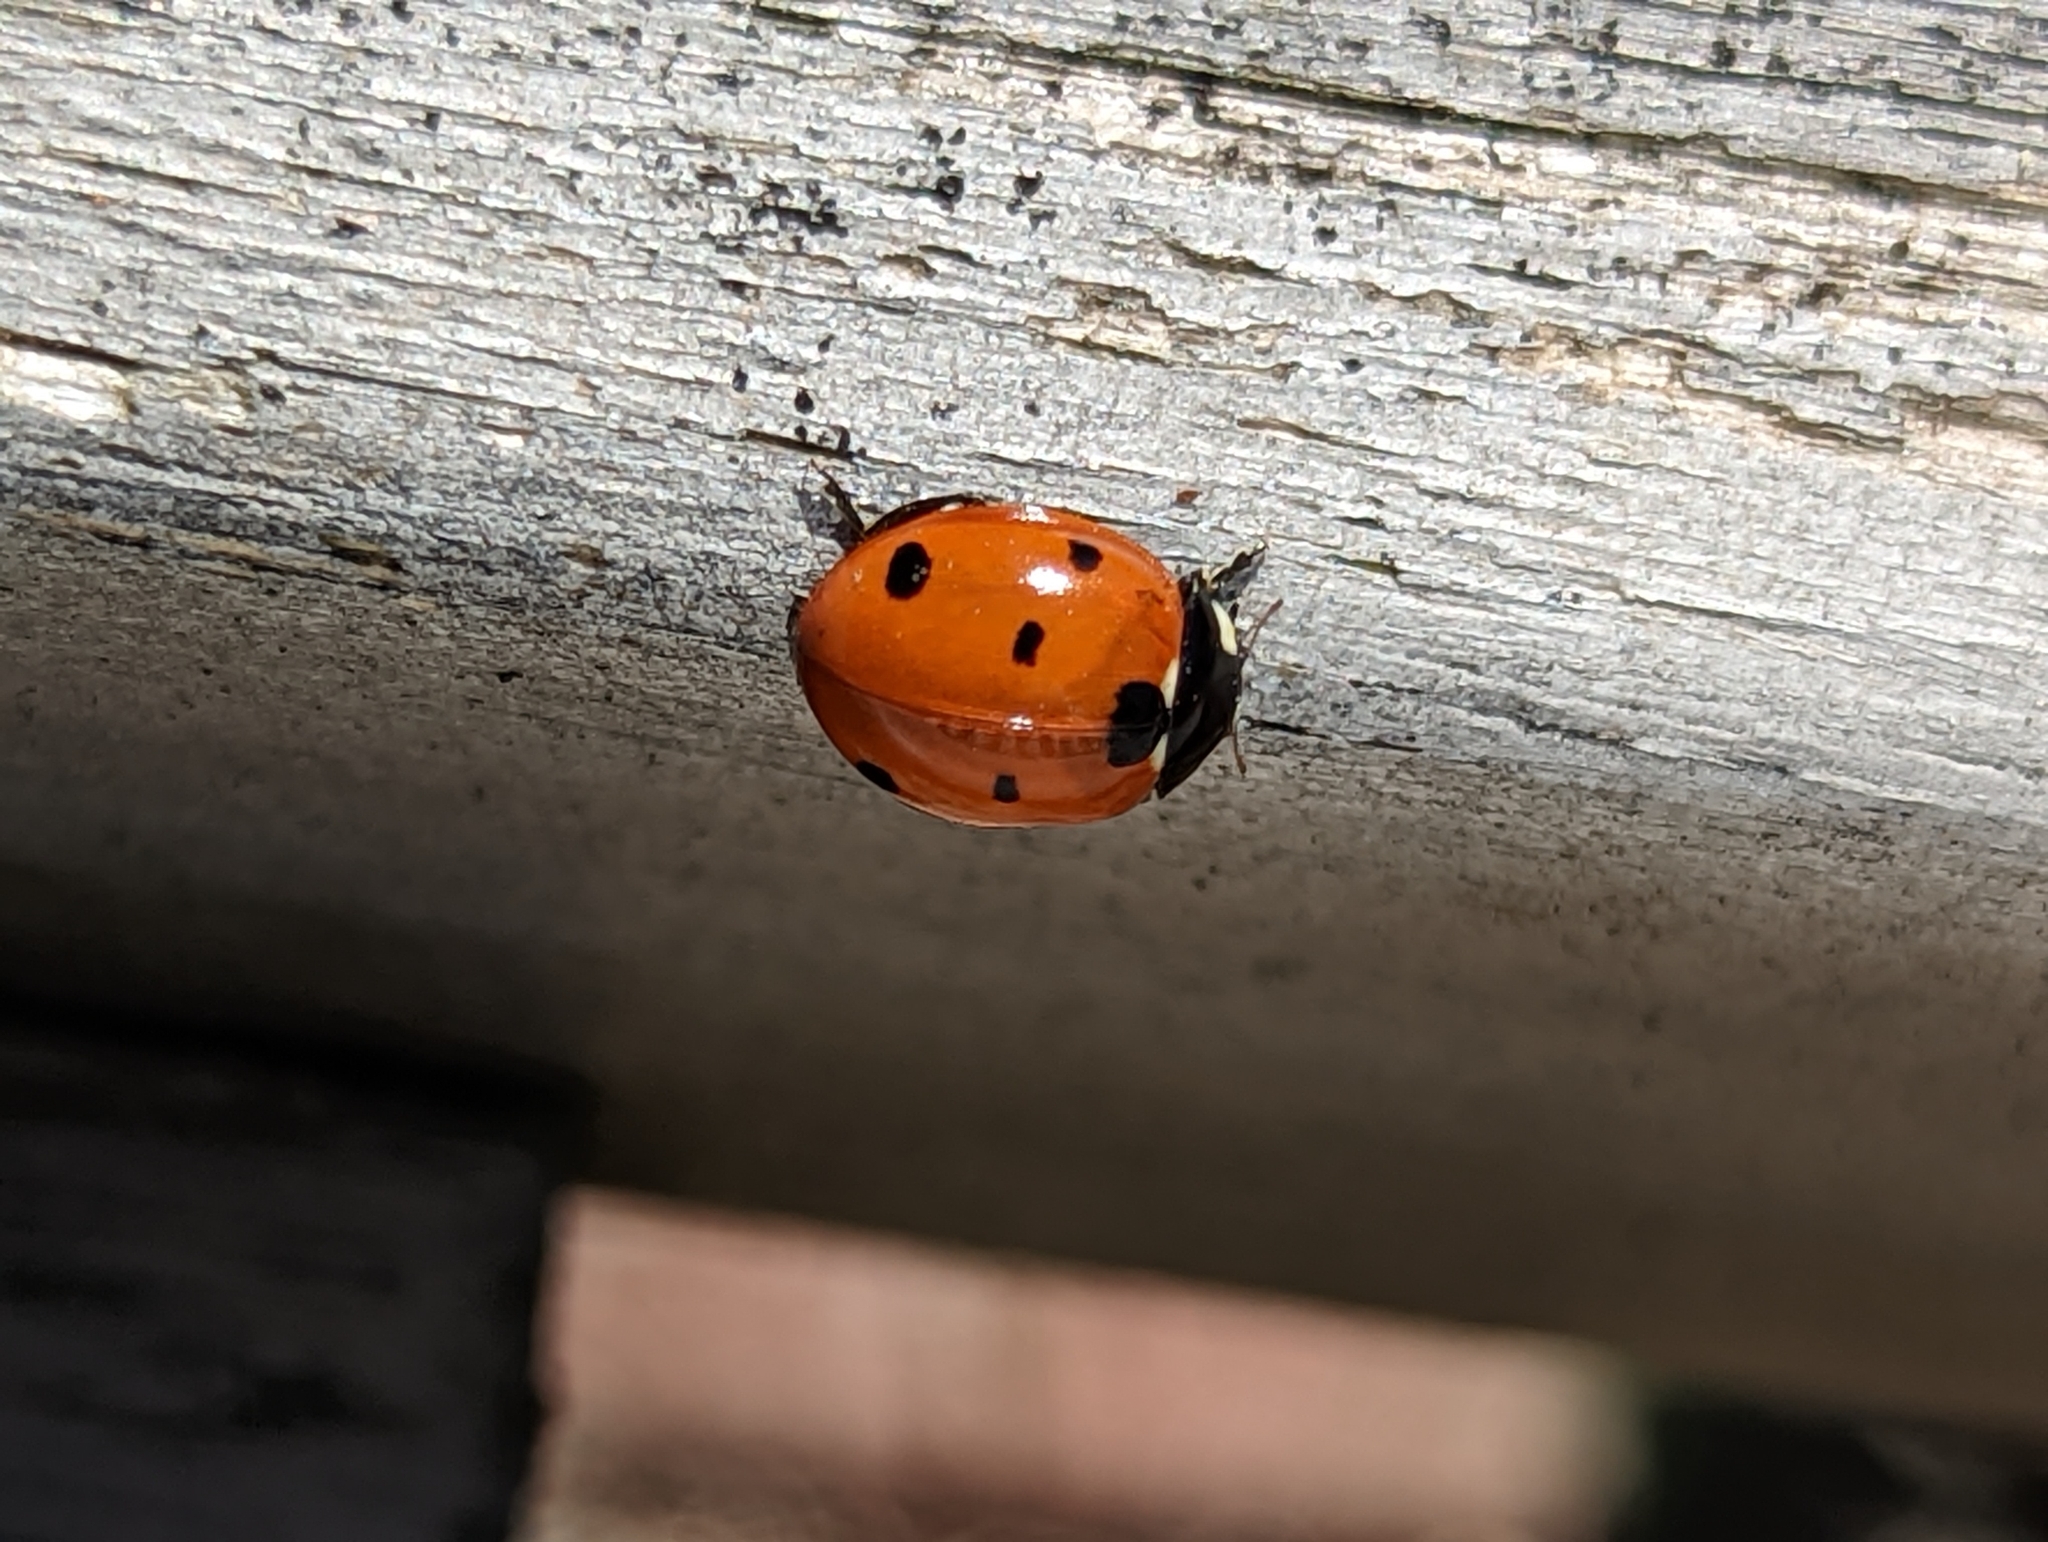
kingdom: Animalia
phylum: Arthropoda
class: Insecta
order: Coleoptera
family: Coccinellidae
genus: Coccinella
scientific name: Coccinella septempunctata
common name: Sevenspotted lady beetle
